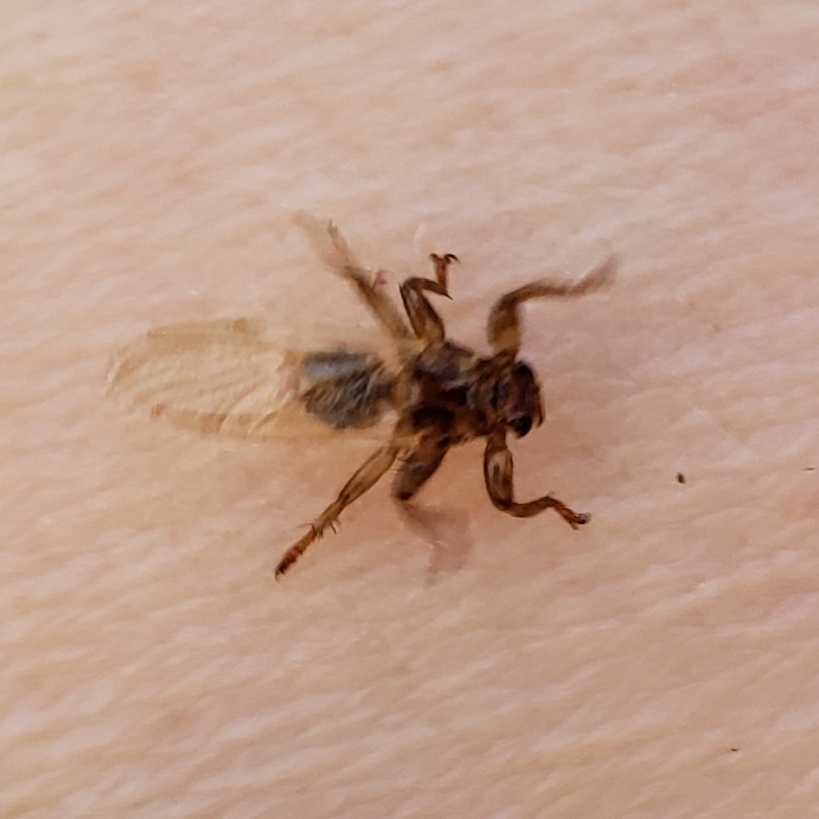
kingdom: Animalia
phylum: Arthropoda
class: Insecta
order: Diptera
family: Hippoboscidae
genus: Lipoptena
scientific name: Lipoptena cervi
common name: Deer ked
